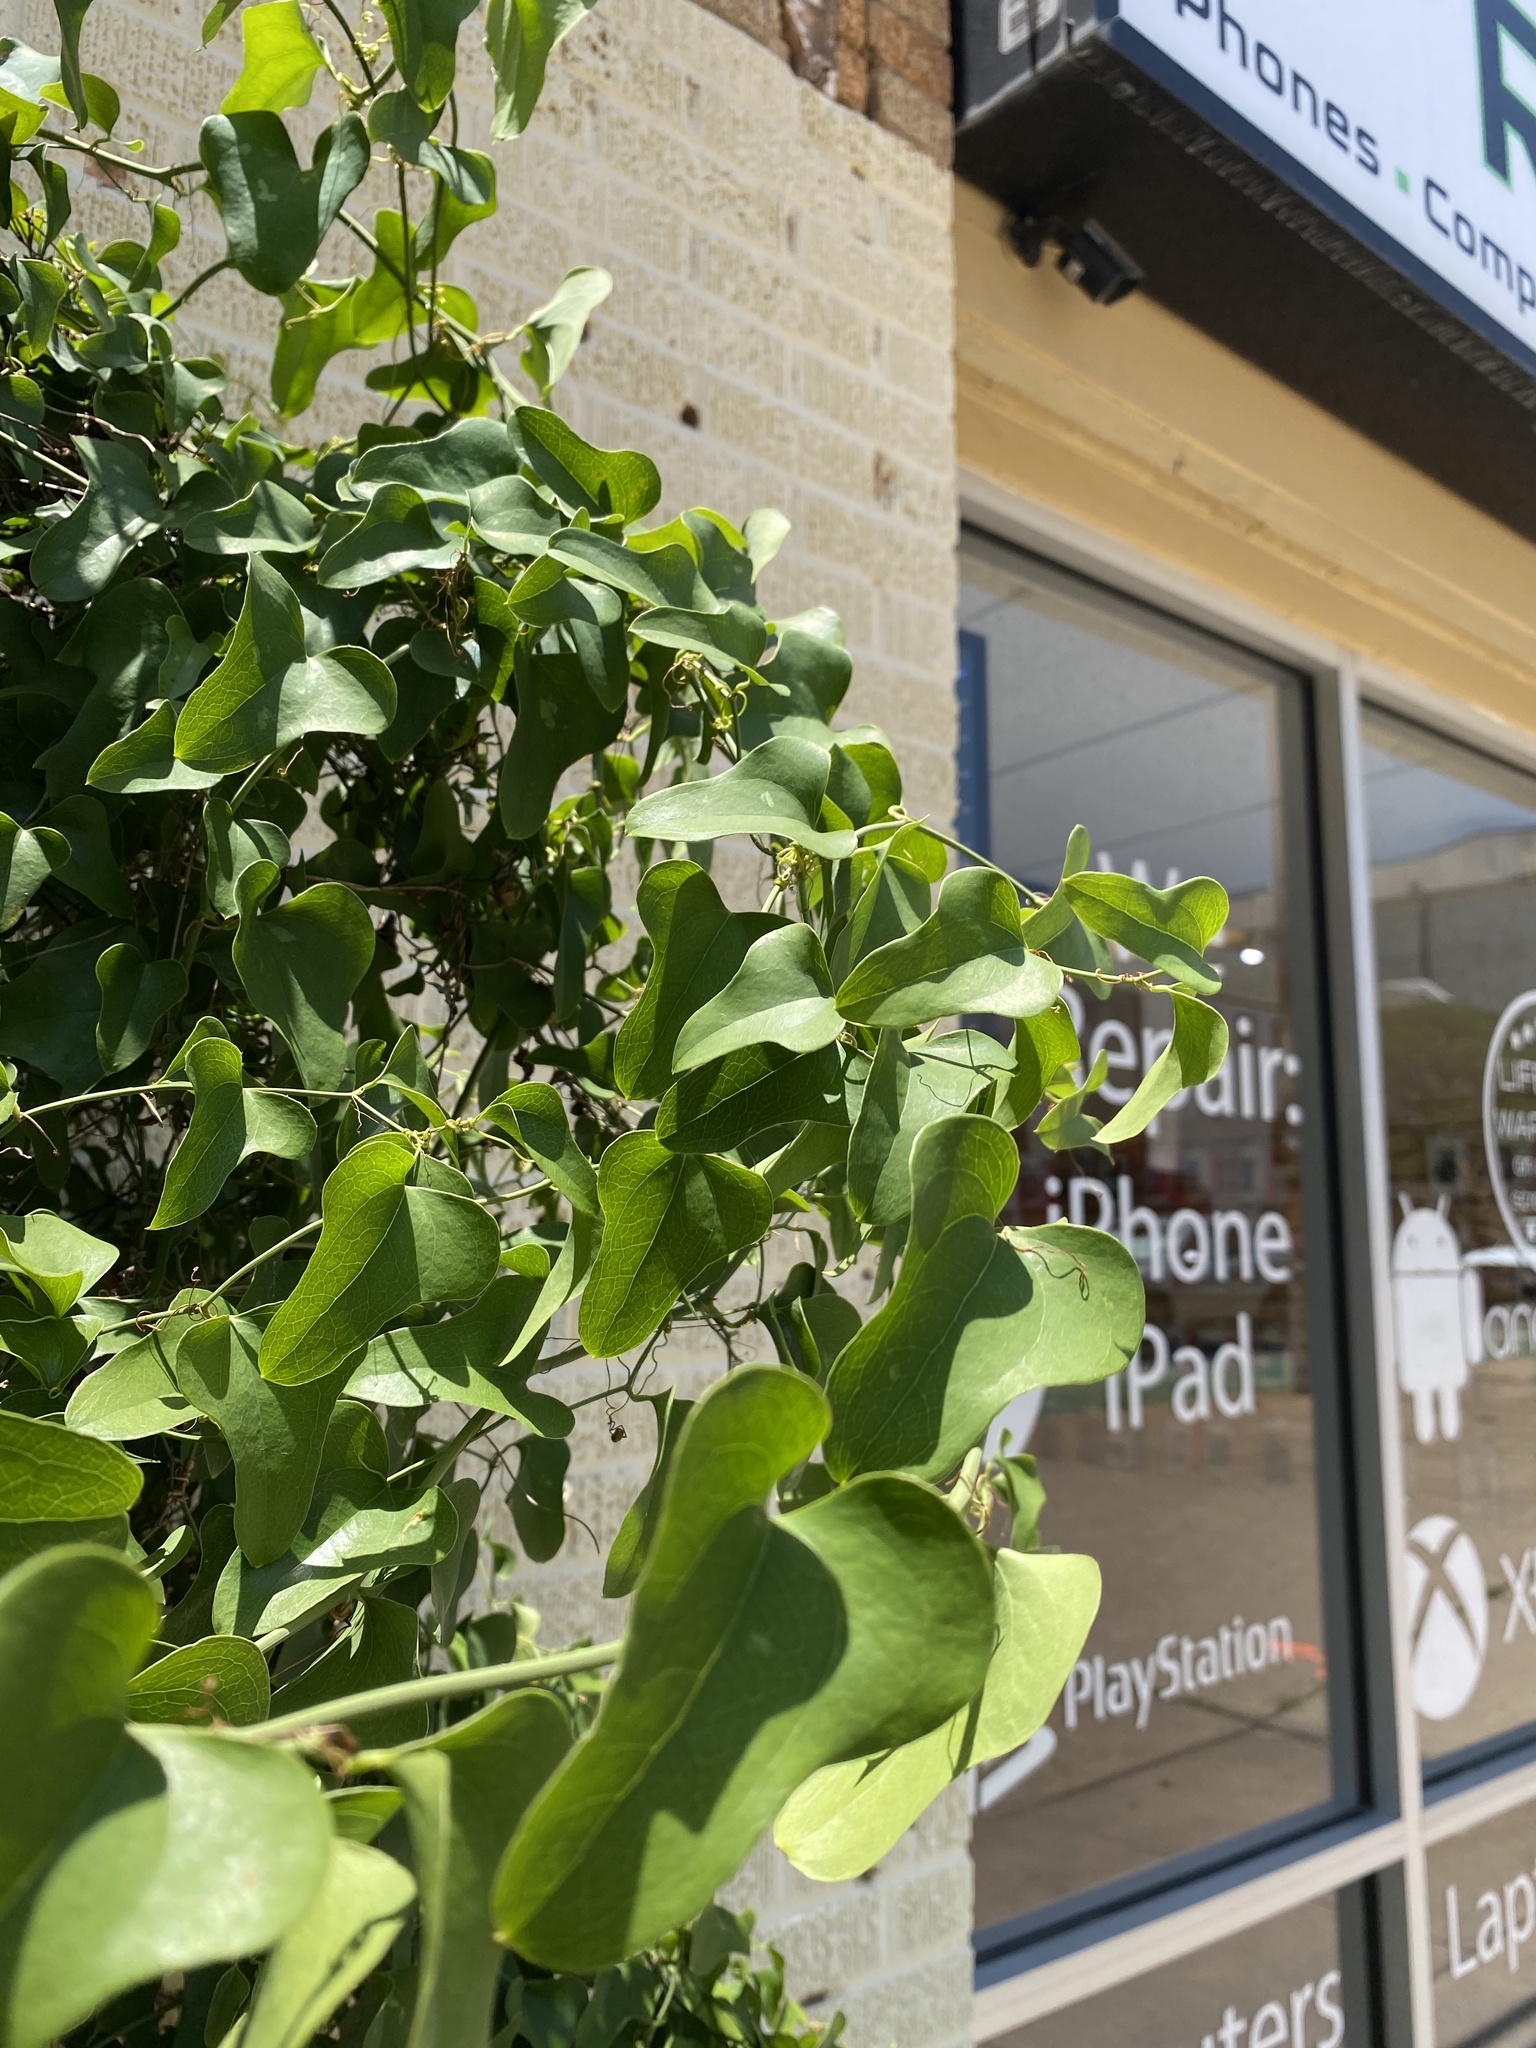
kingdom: Plantae
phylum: Tracheophyta
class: Liliopsida
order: Liliales
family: Smilacaceae
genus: Smilax
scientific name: Smilax bona-nox
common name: Catbrier
